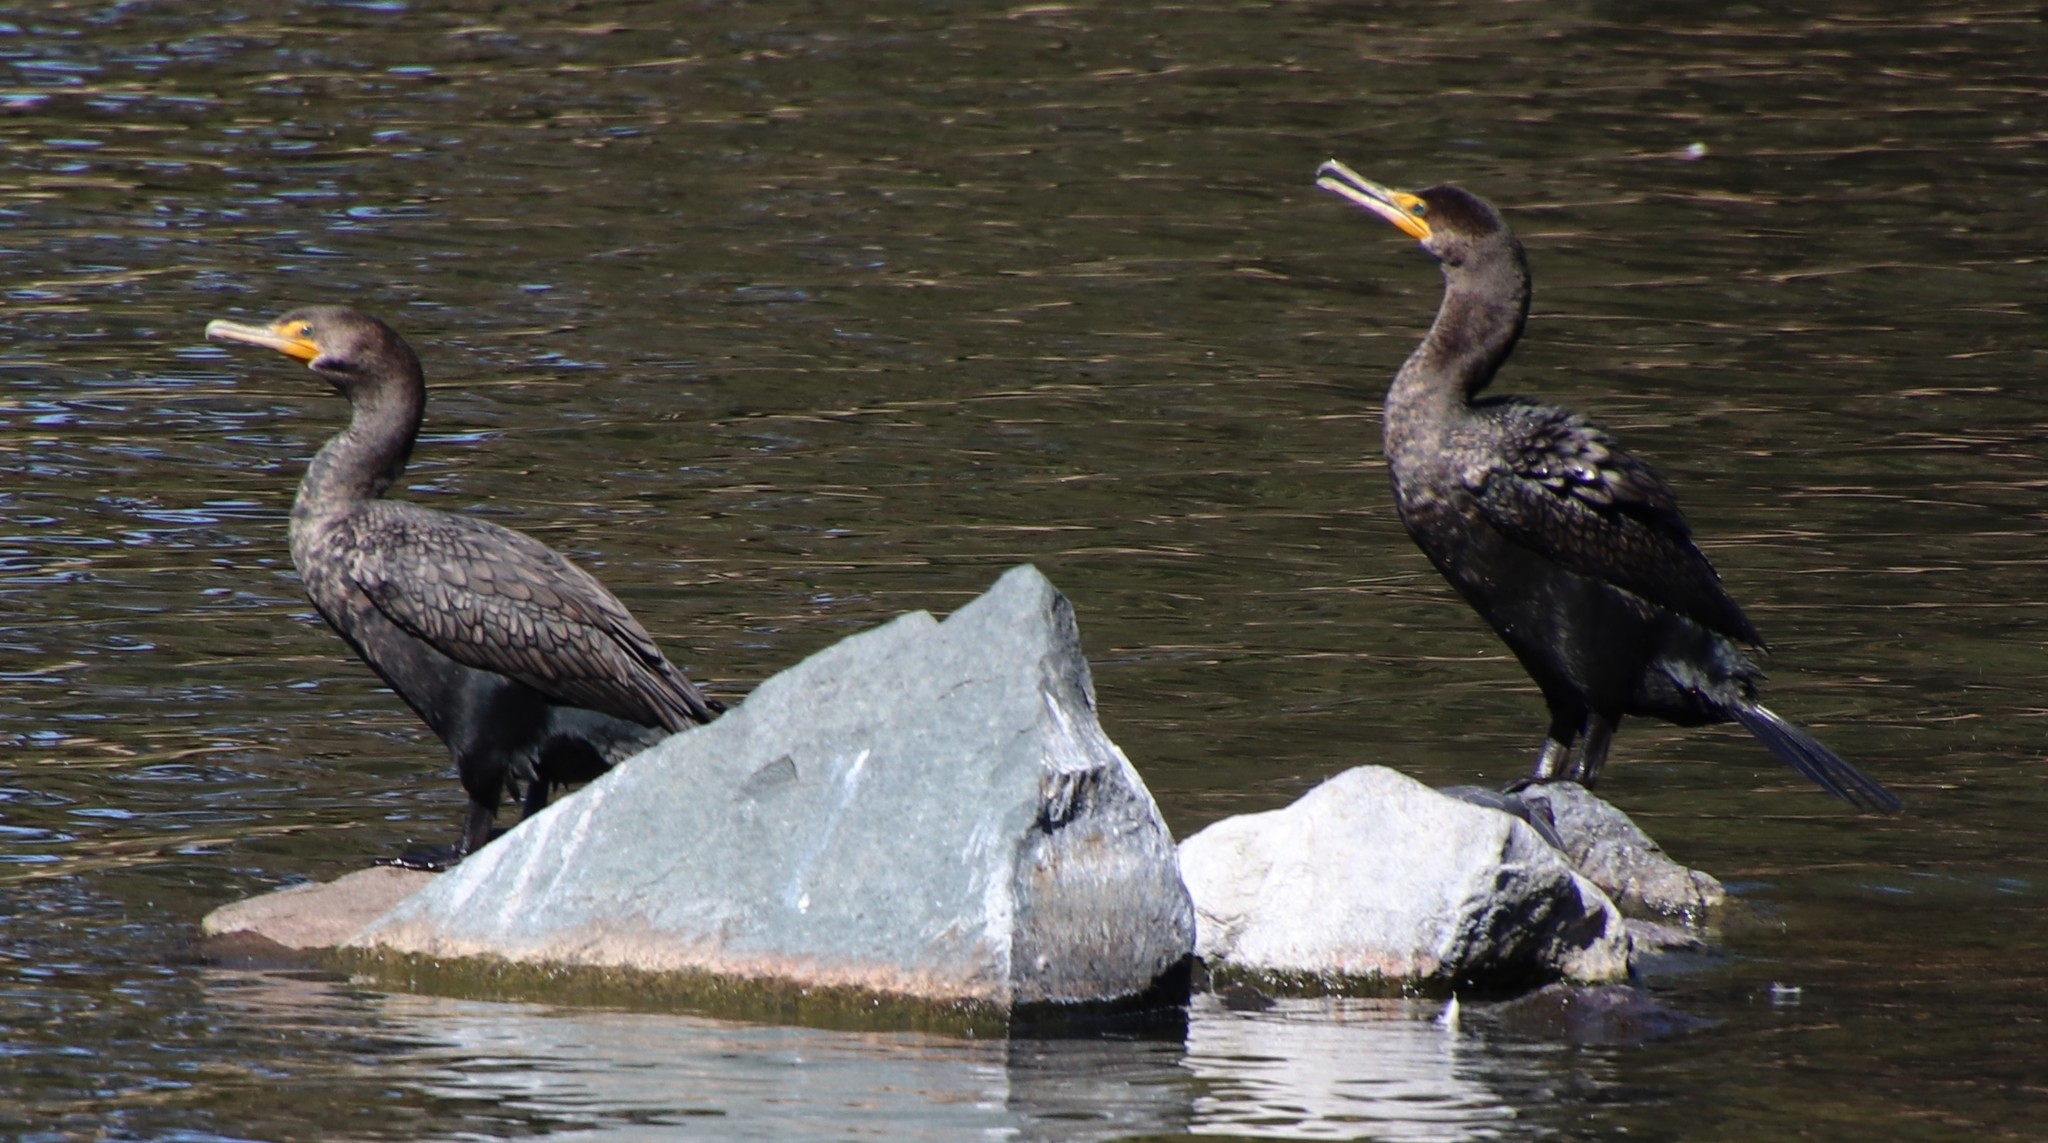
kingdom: Animalia
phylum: Chordata
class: Aves
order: Suliformes
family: Phalacrocoracidae
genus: Phalacrocorax
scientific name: Phalacrocorax auritus
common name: Double-crested cormorant
